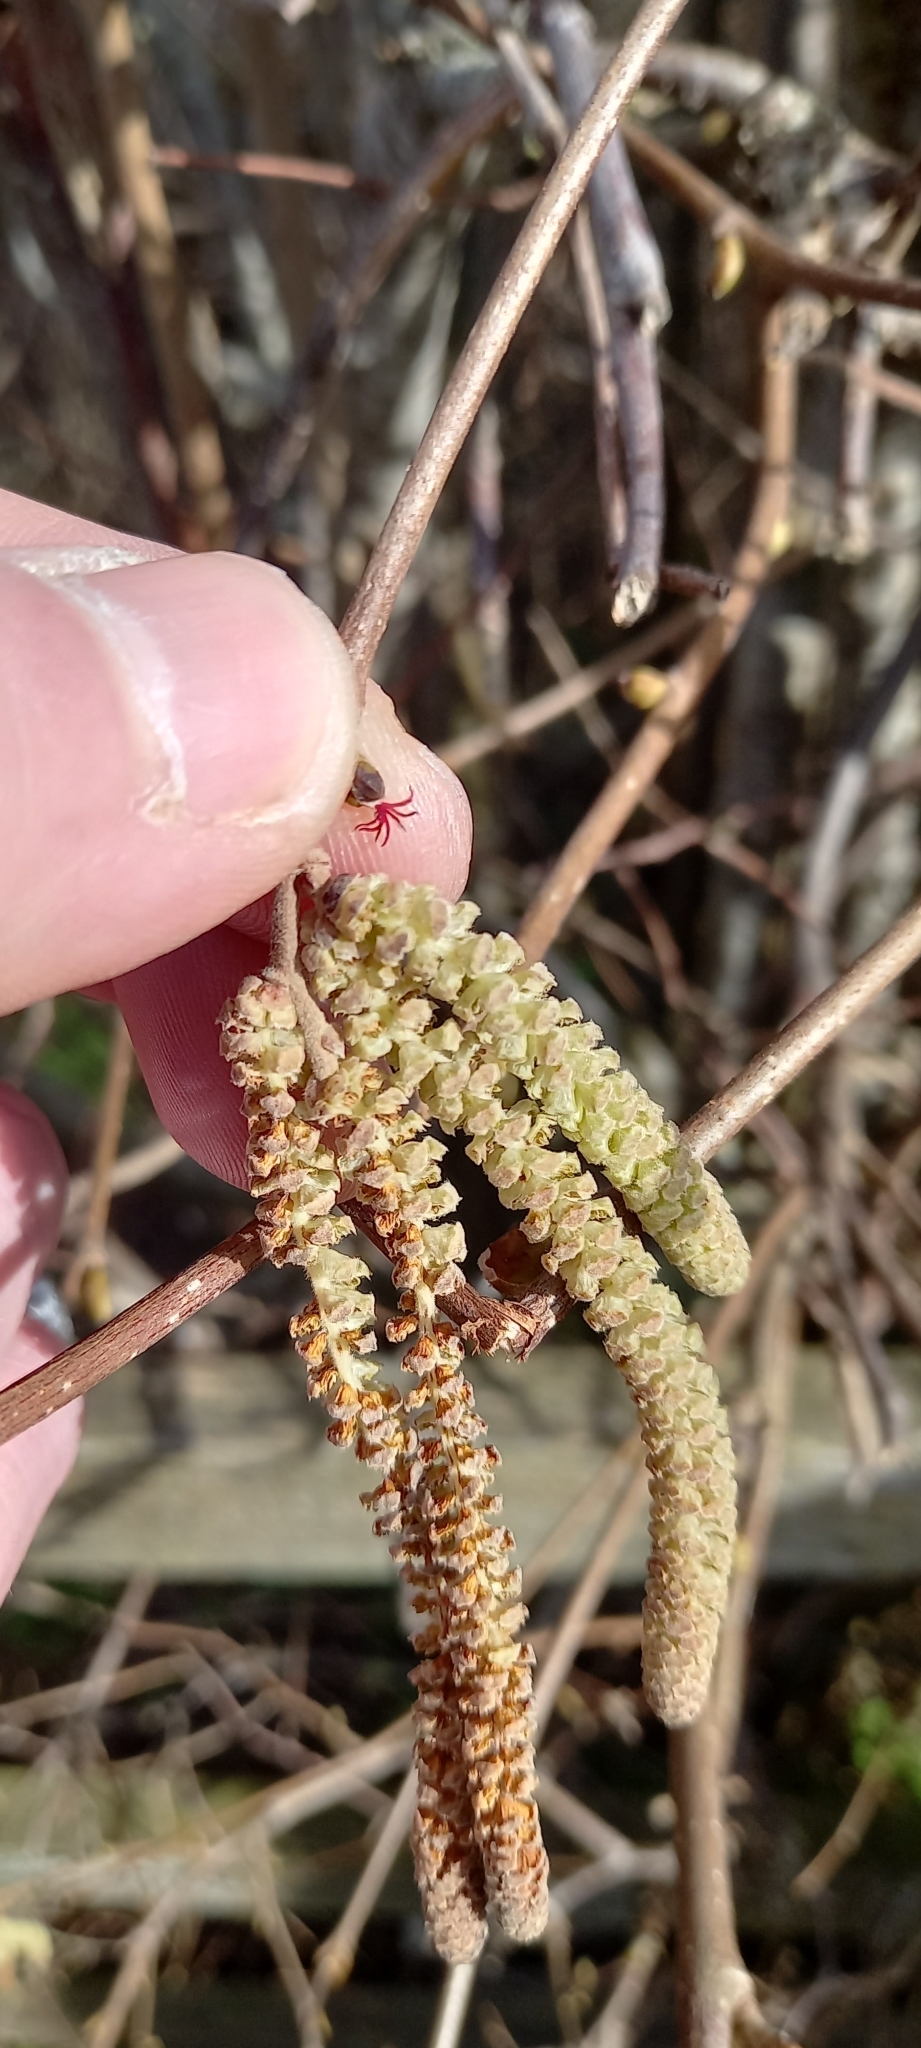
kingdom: Plantae
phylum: Tracheophyta
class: Magnoliopsida
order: Fagales
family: Betulaceae
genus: Corylus
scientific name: Corylus avellana
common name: European hazel
